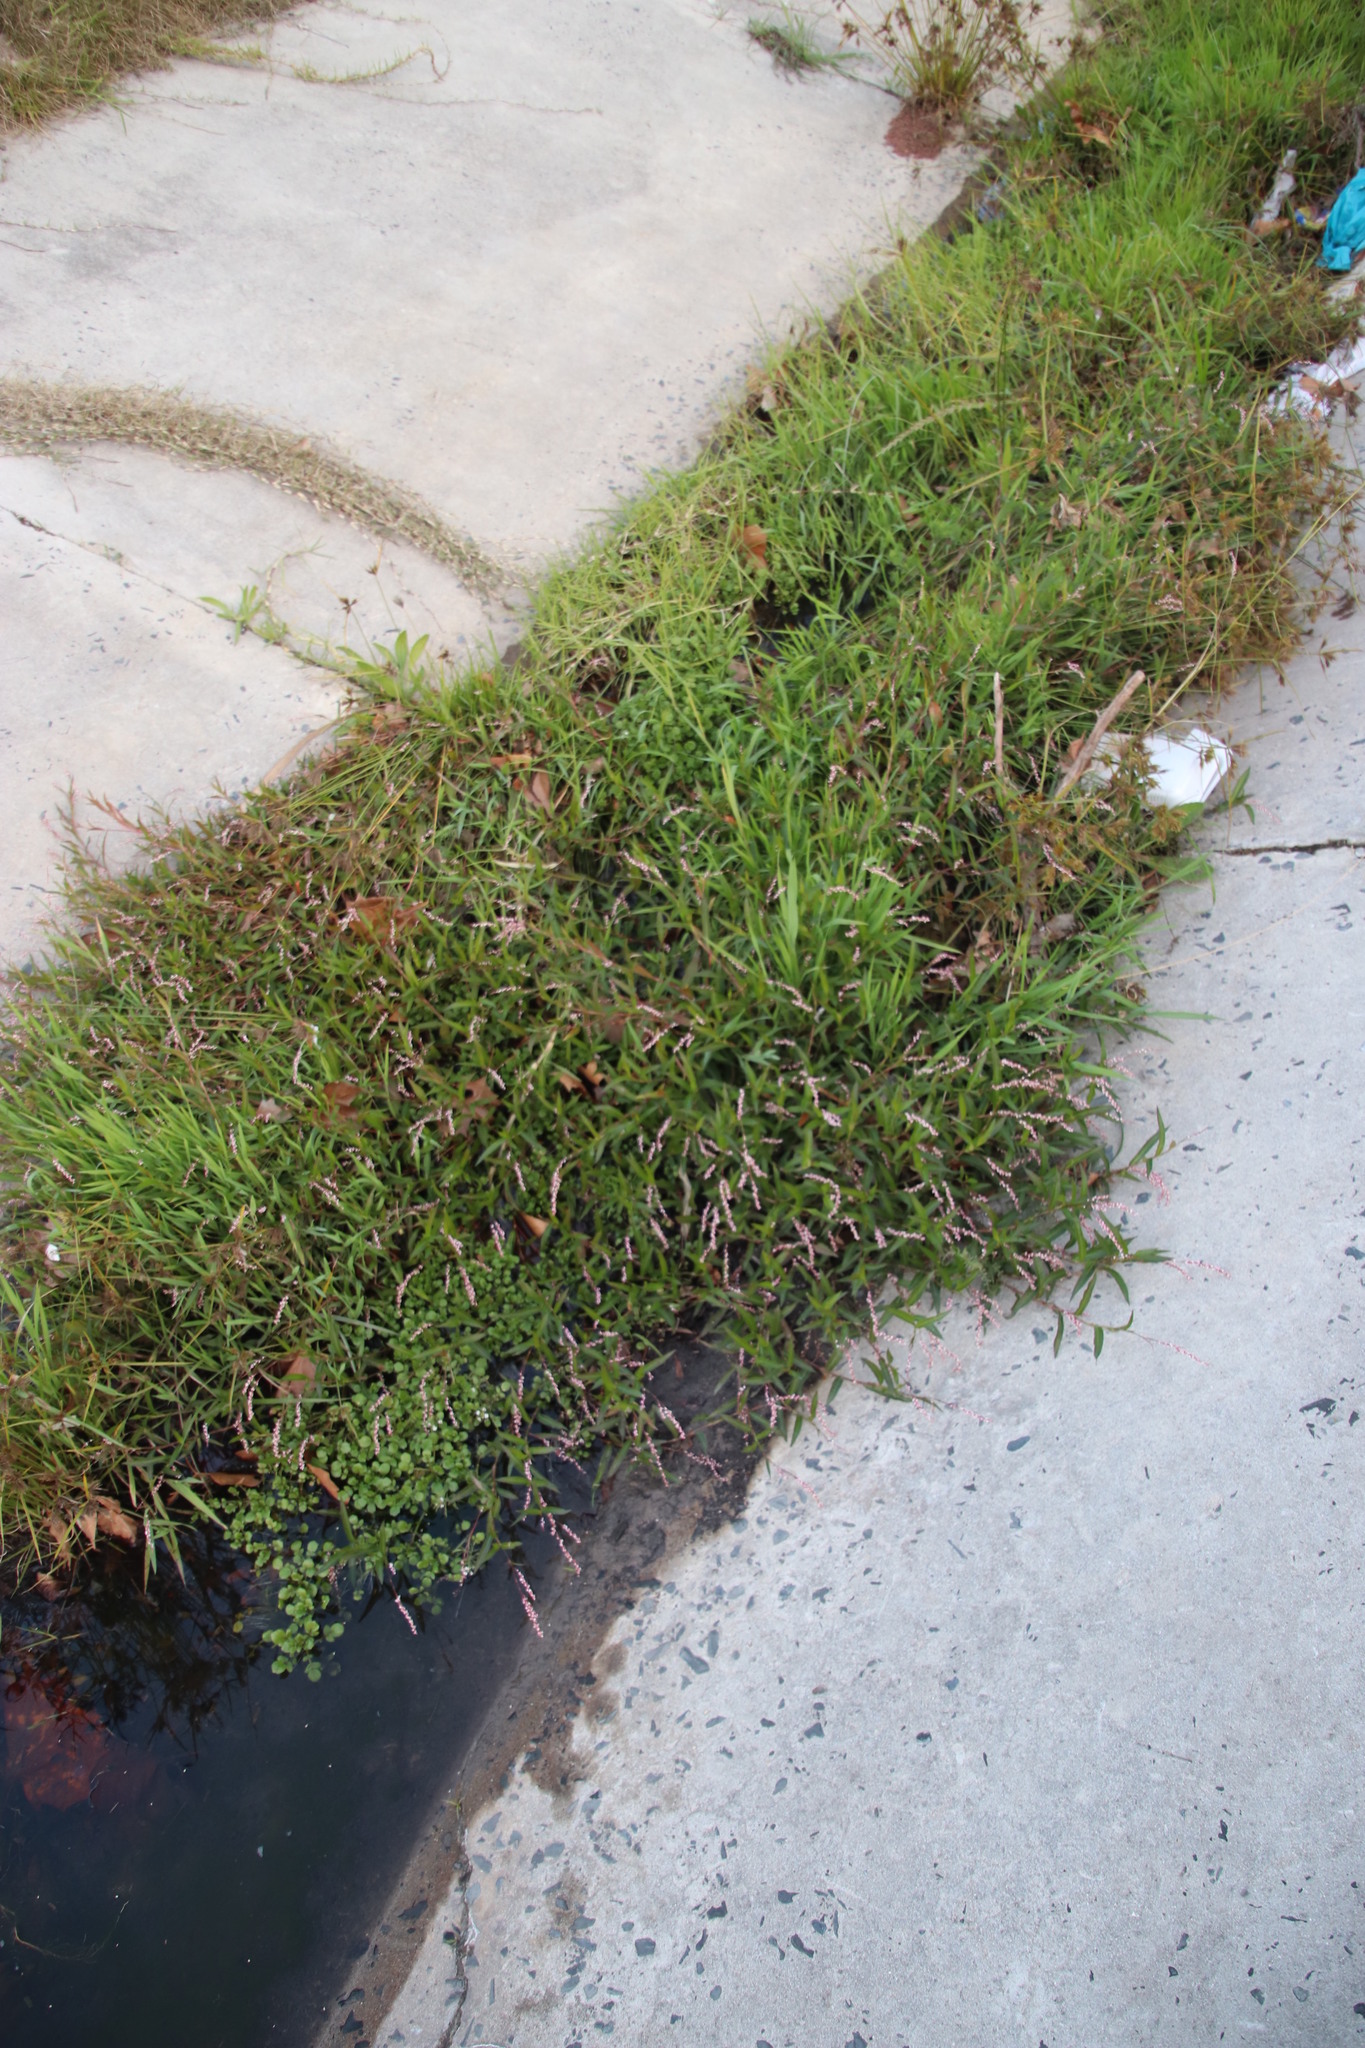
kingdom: Plantae
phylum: Tracheophyta
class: Magnoliopsida
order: Caryophyllales
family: Polygonaceae
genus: Persicaria
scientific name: Persicaria decipiens
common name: Willow-weed
